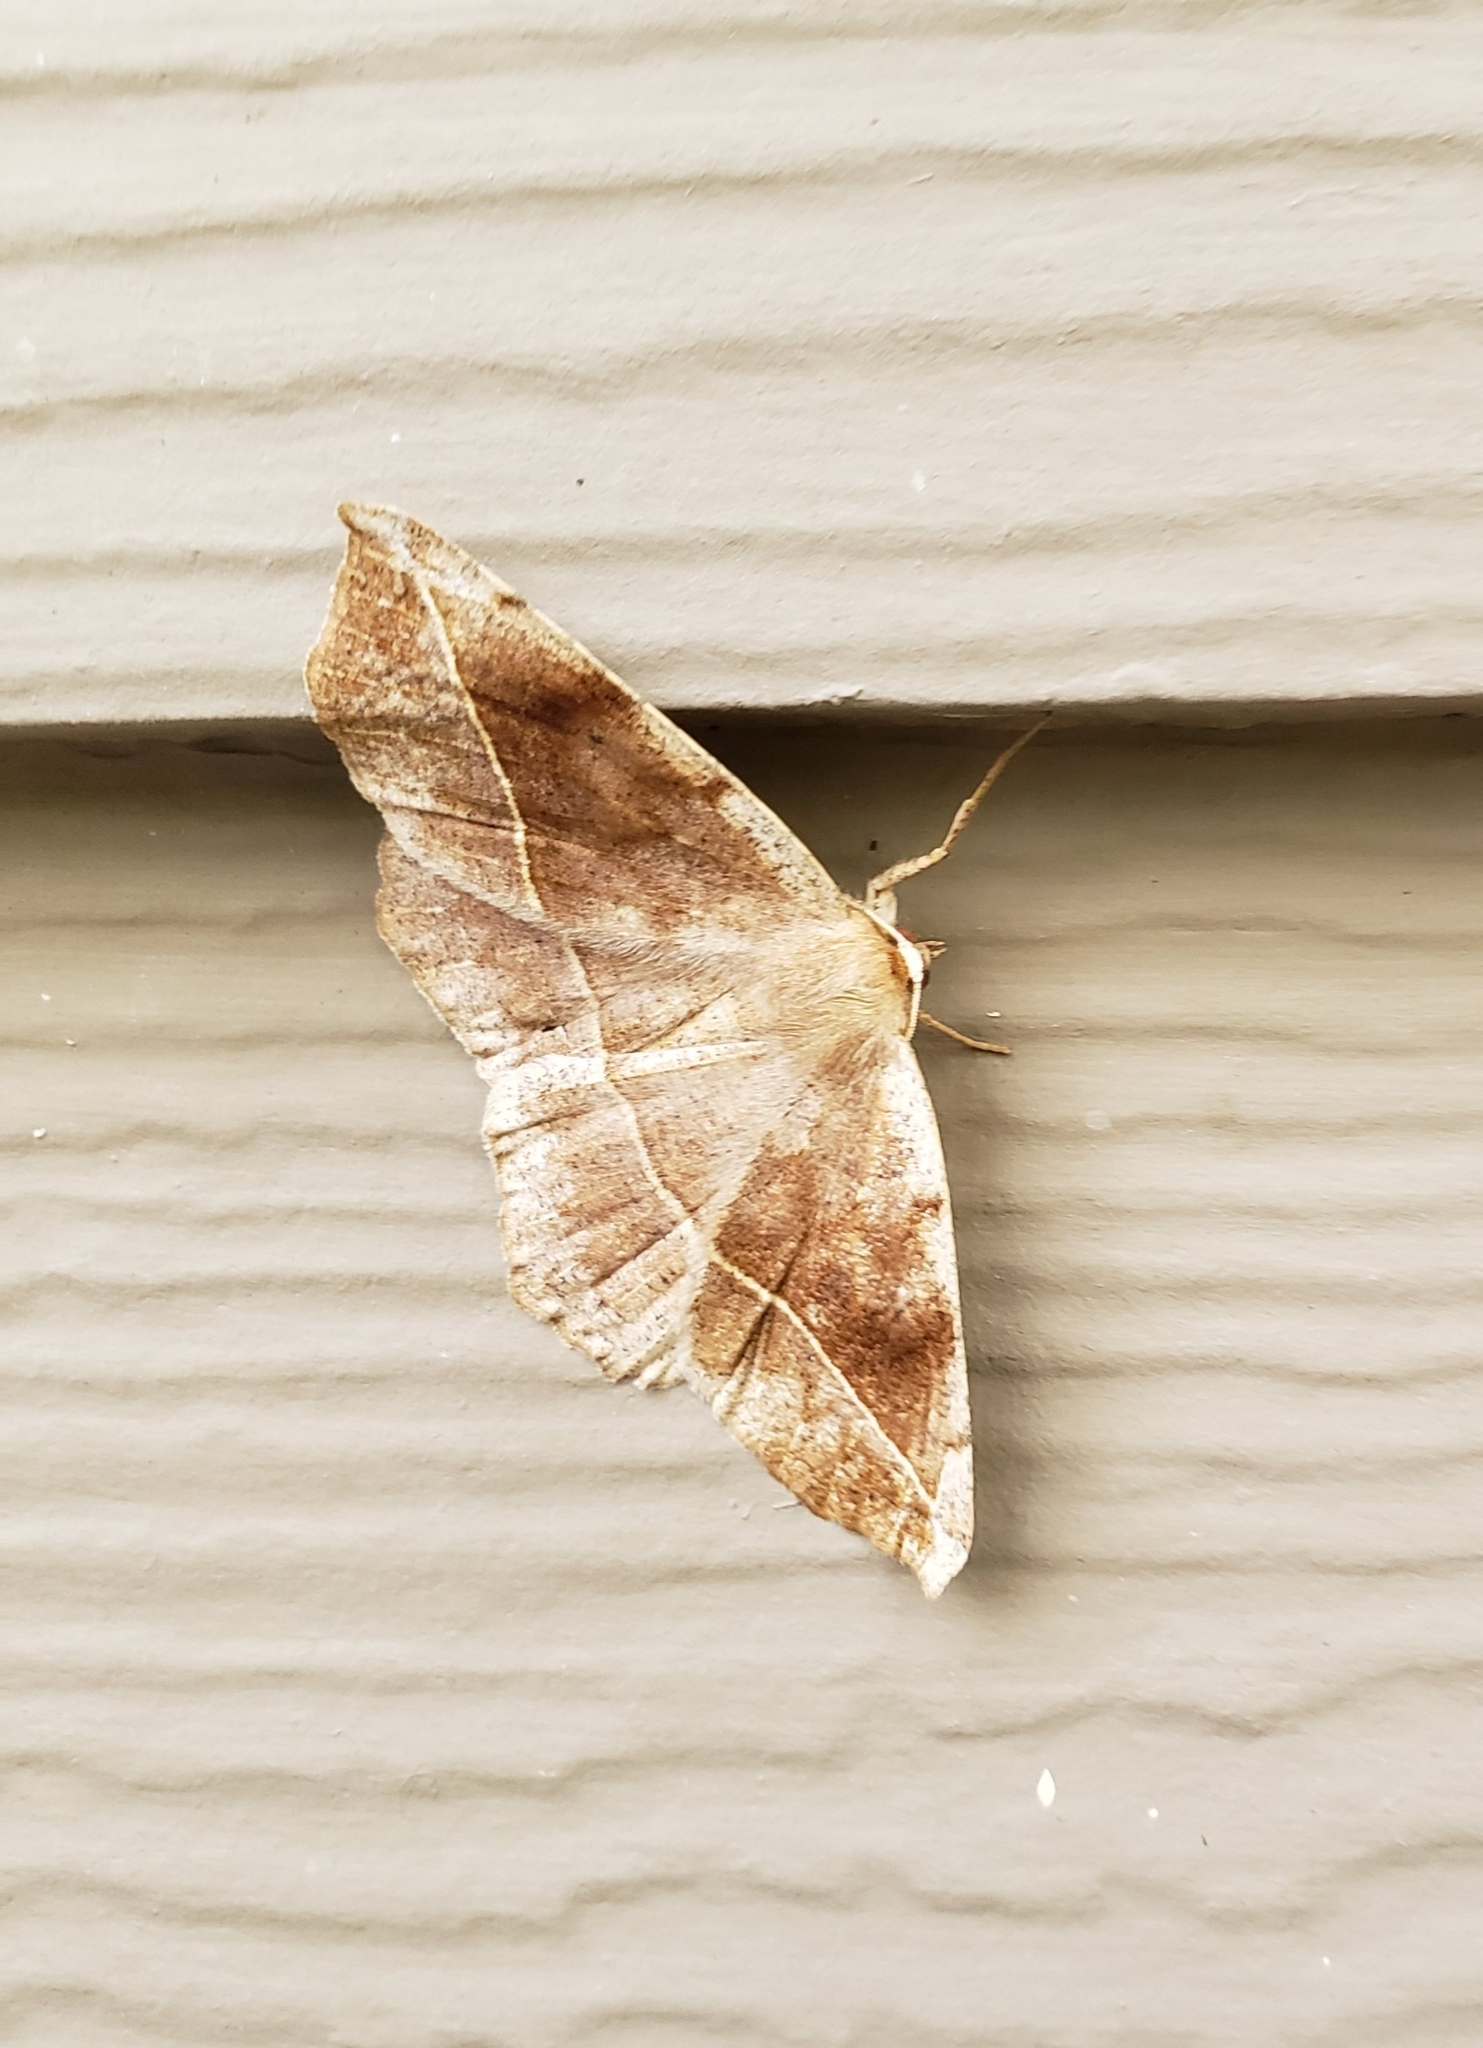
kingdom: Animalia
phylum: Arthropoda
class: Insecta
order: Lepidoptera
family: Geometridae
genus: Eutrapela
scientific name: Eutrapela clemataria
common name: Curved-toothed geometer
